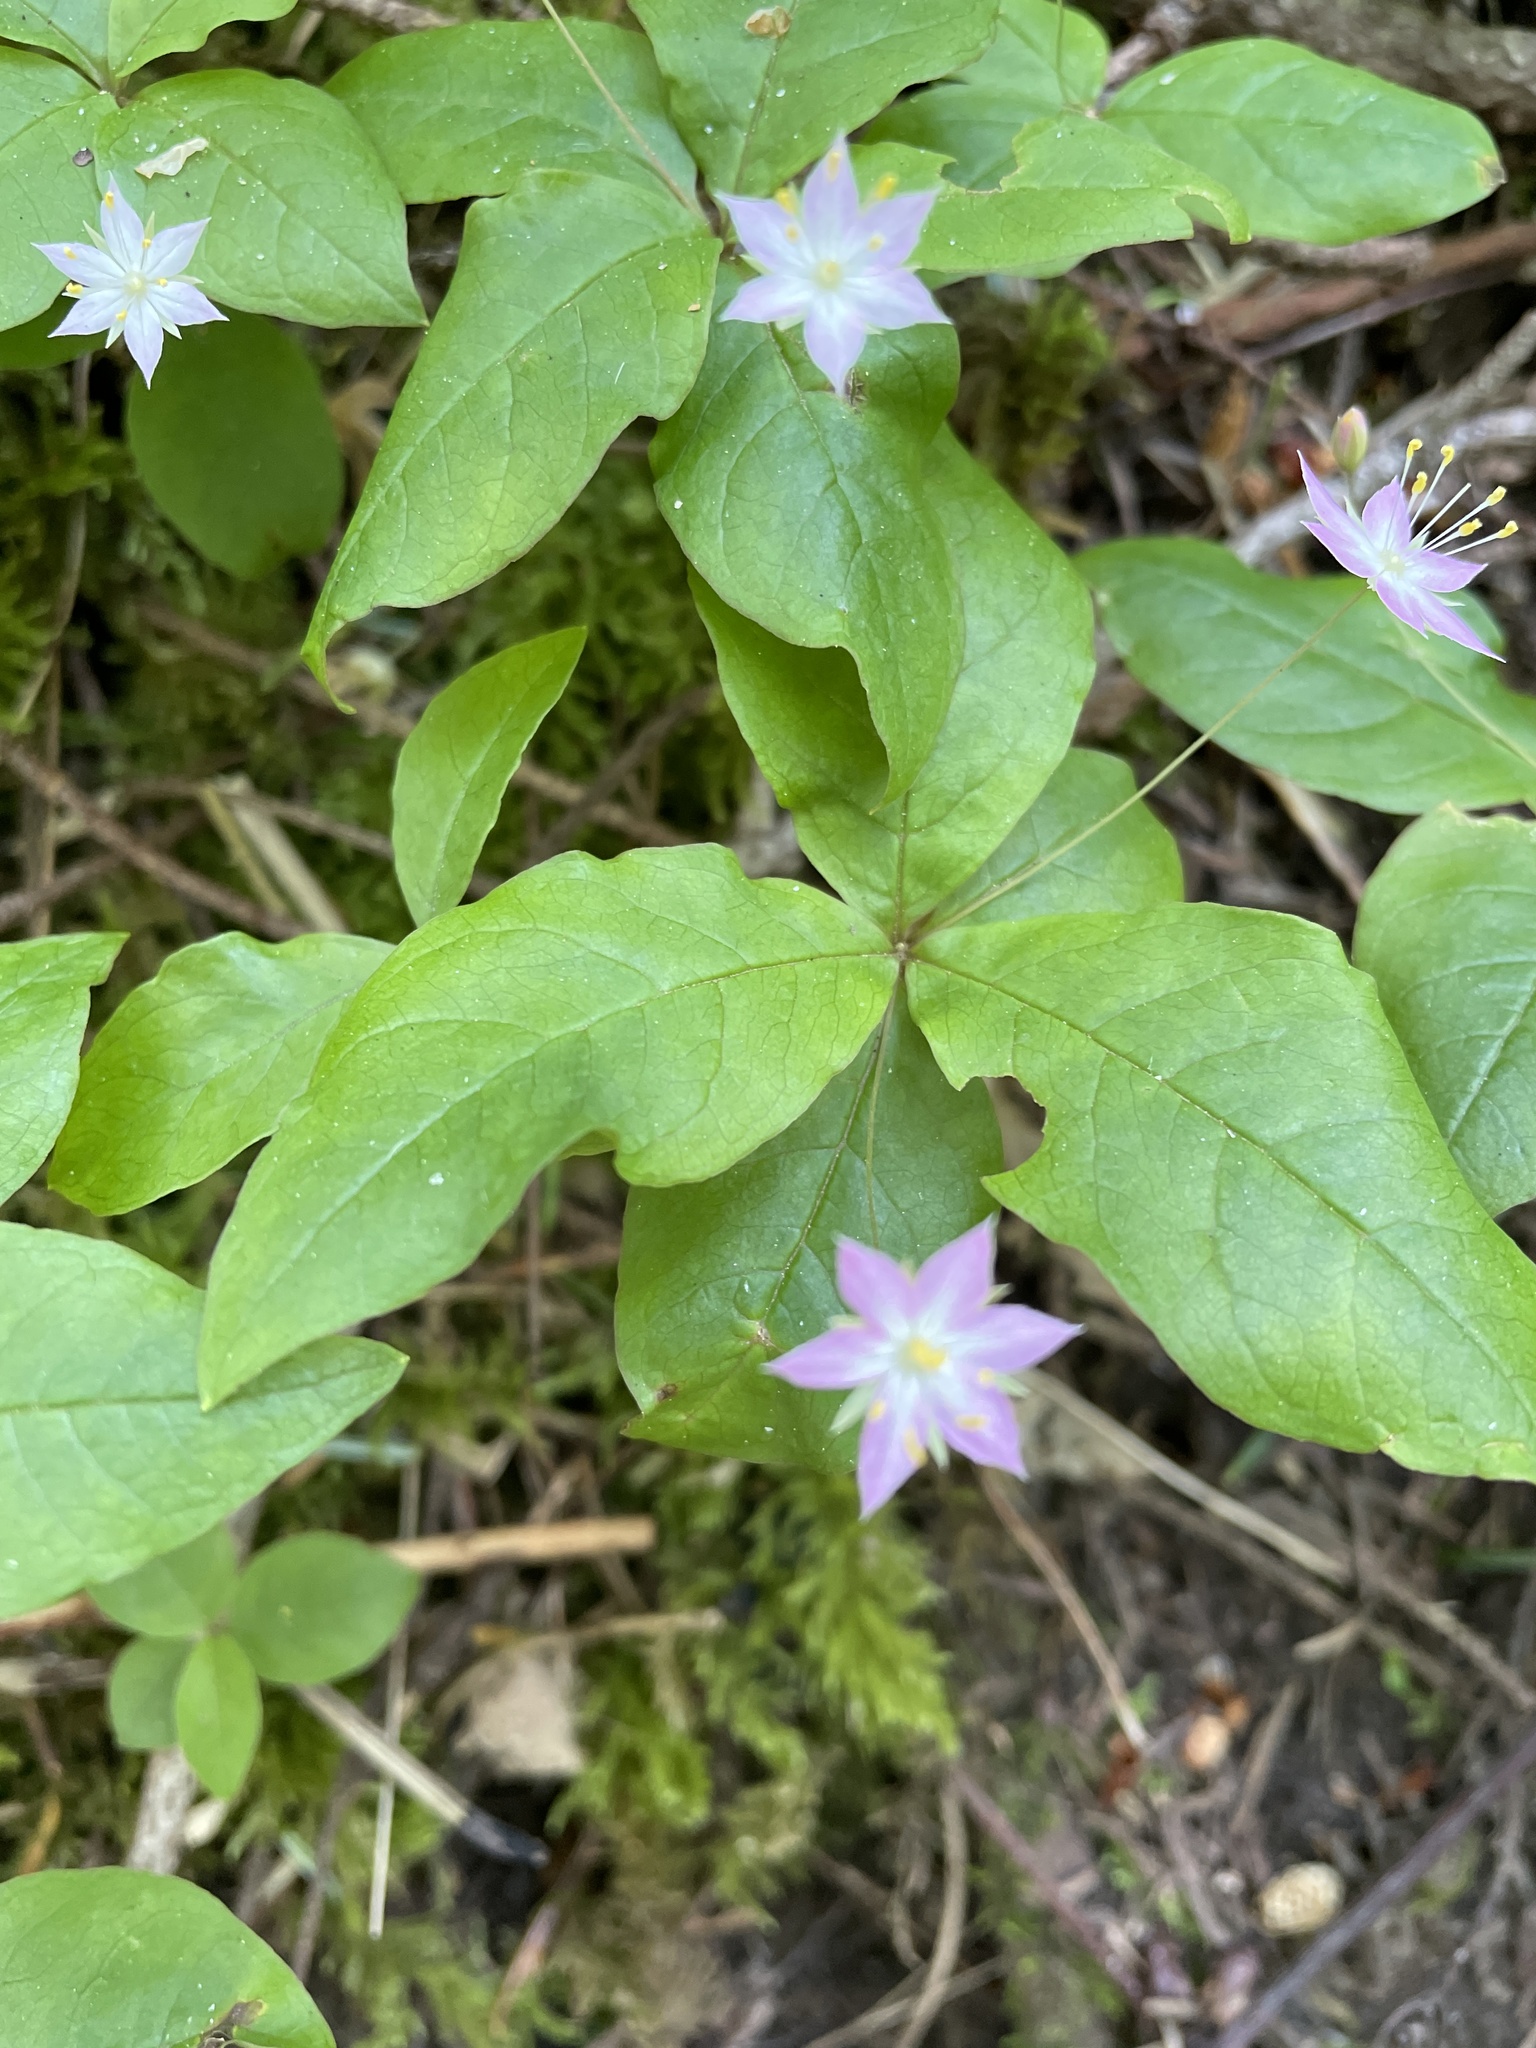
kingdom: Plantae
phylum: Tracheophyta
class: Magnoliopsida
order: Ericales
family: Primulaceae
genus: Lysimachia
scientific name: Lysimachia latifolia
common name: Pacific starflower
